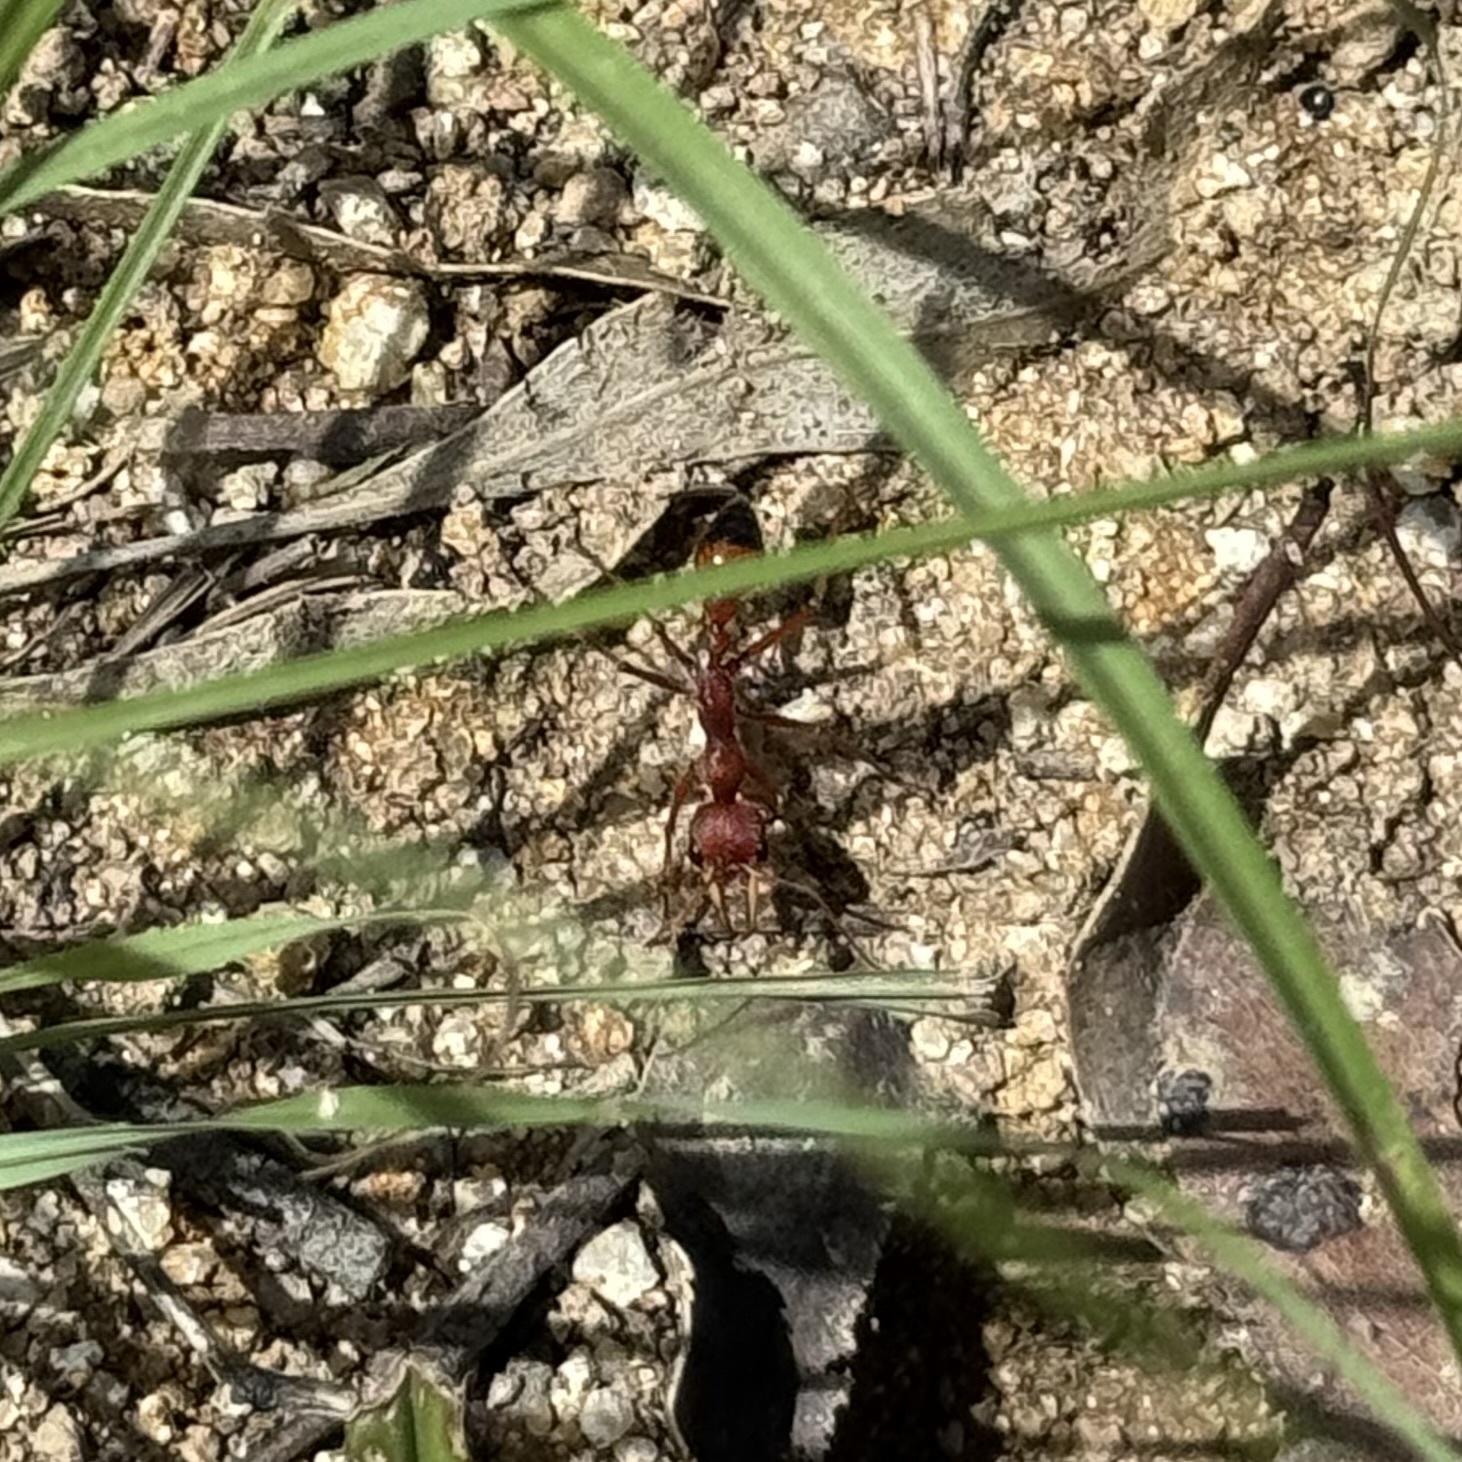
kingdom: Animalia
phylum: Arthropoda
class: Insecta
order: Hymenoptera
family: Formicidae
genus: Myrmecia
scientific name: Myrmecia gulosa
